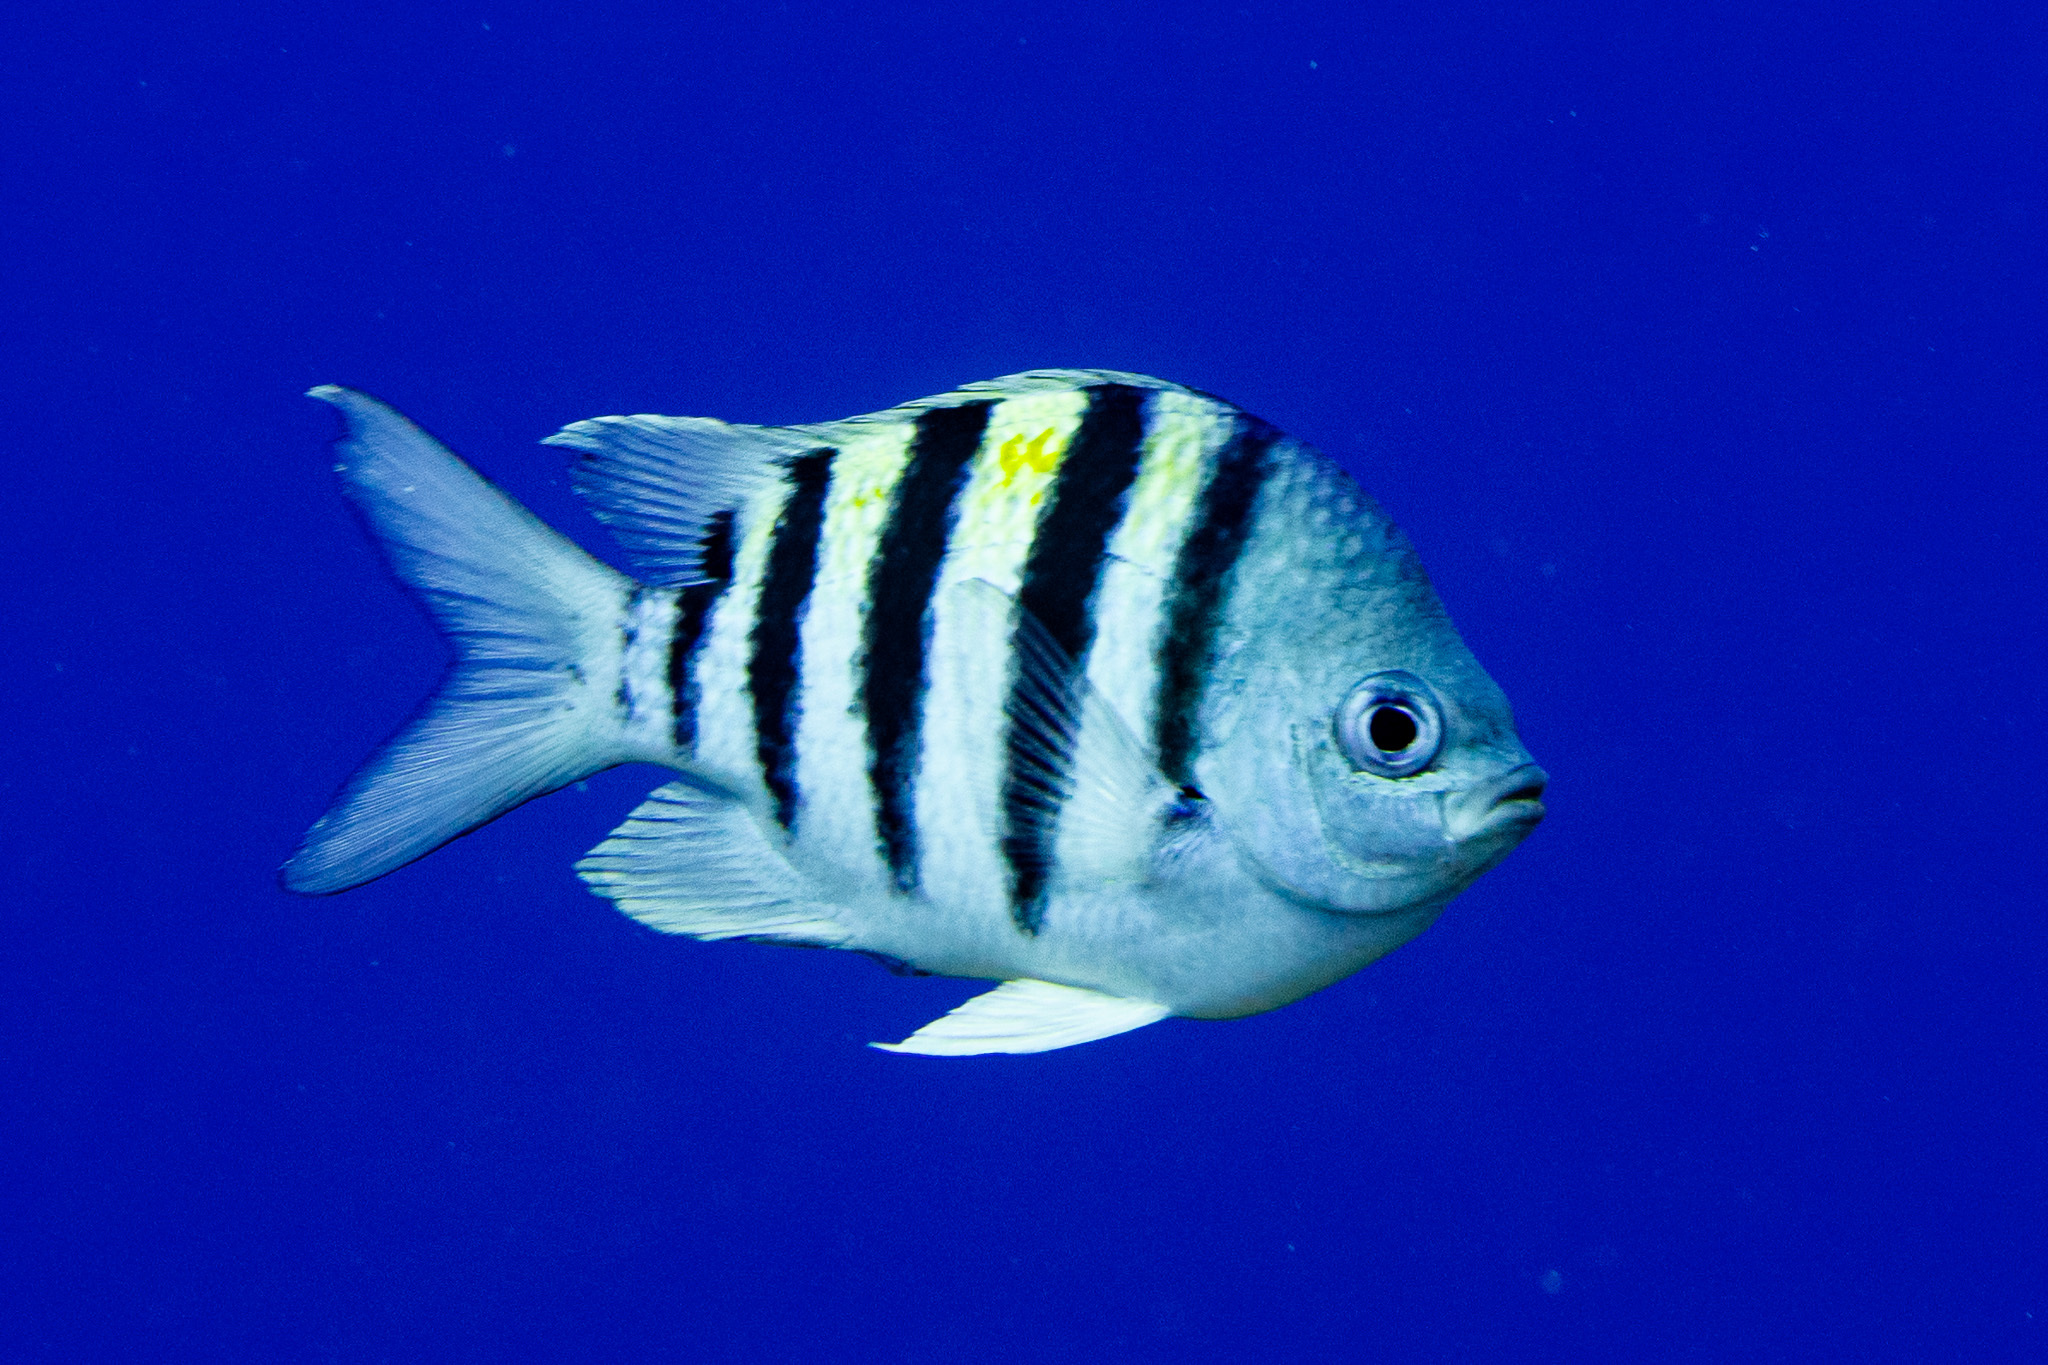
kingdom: Animalia
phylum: Chordata
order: Perciformes
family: Pomacentridae
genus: Abudefduf
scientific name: Abudefduf saxatilis
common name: Sergeant major
